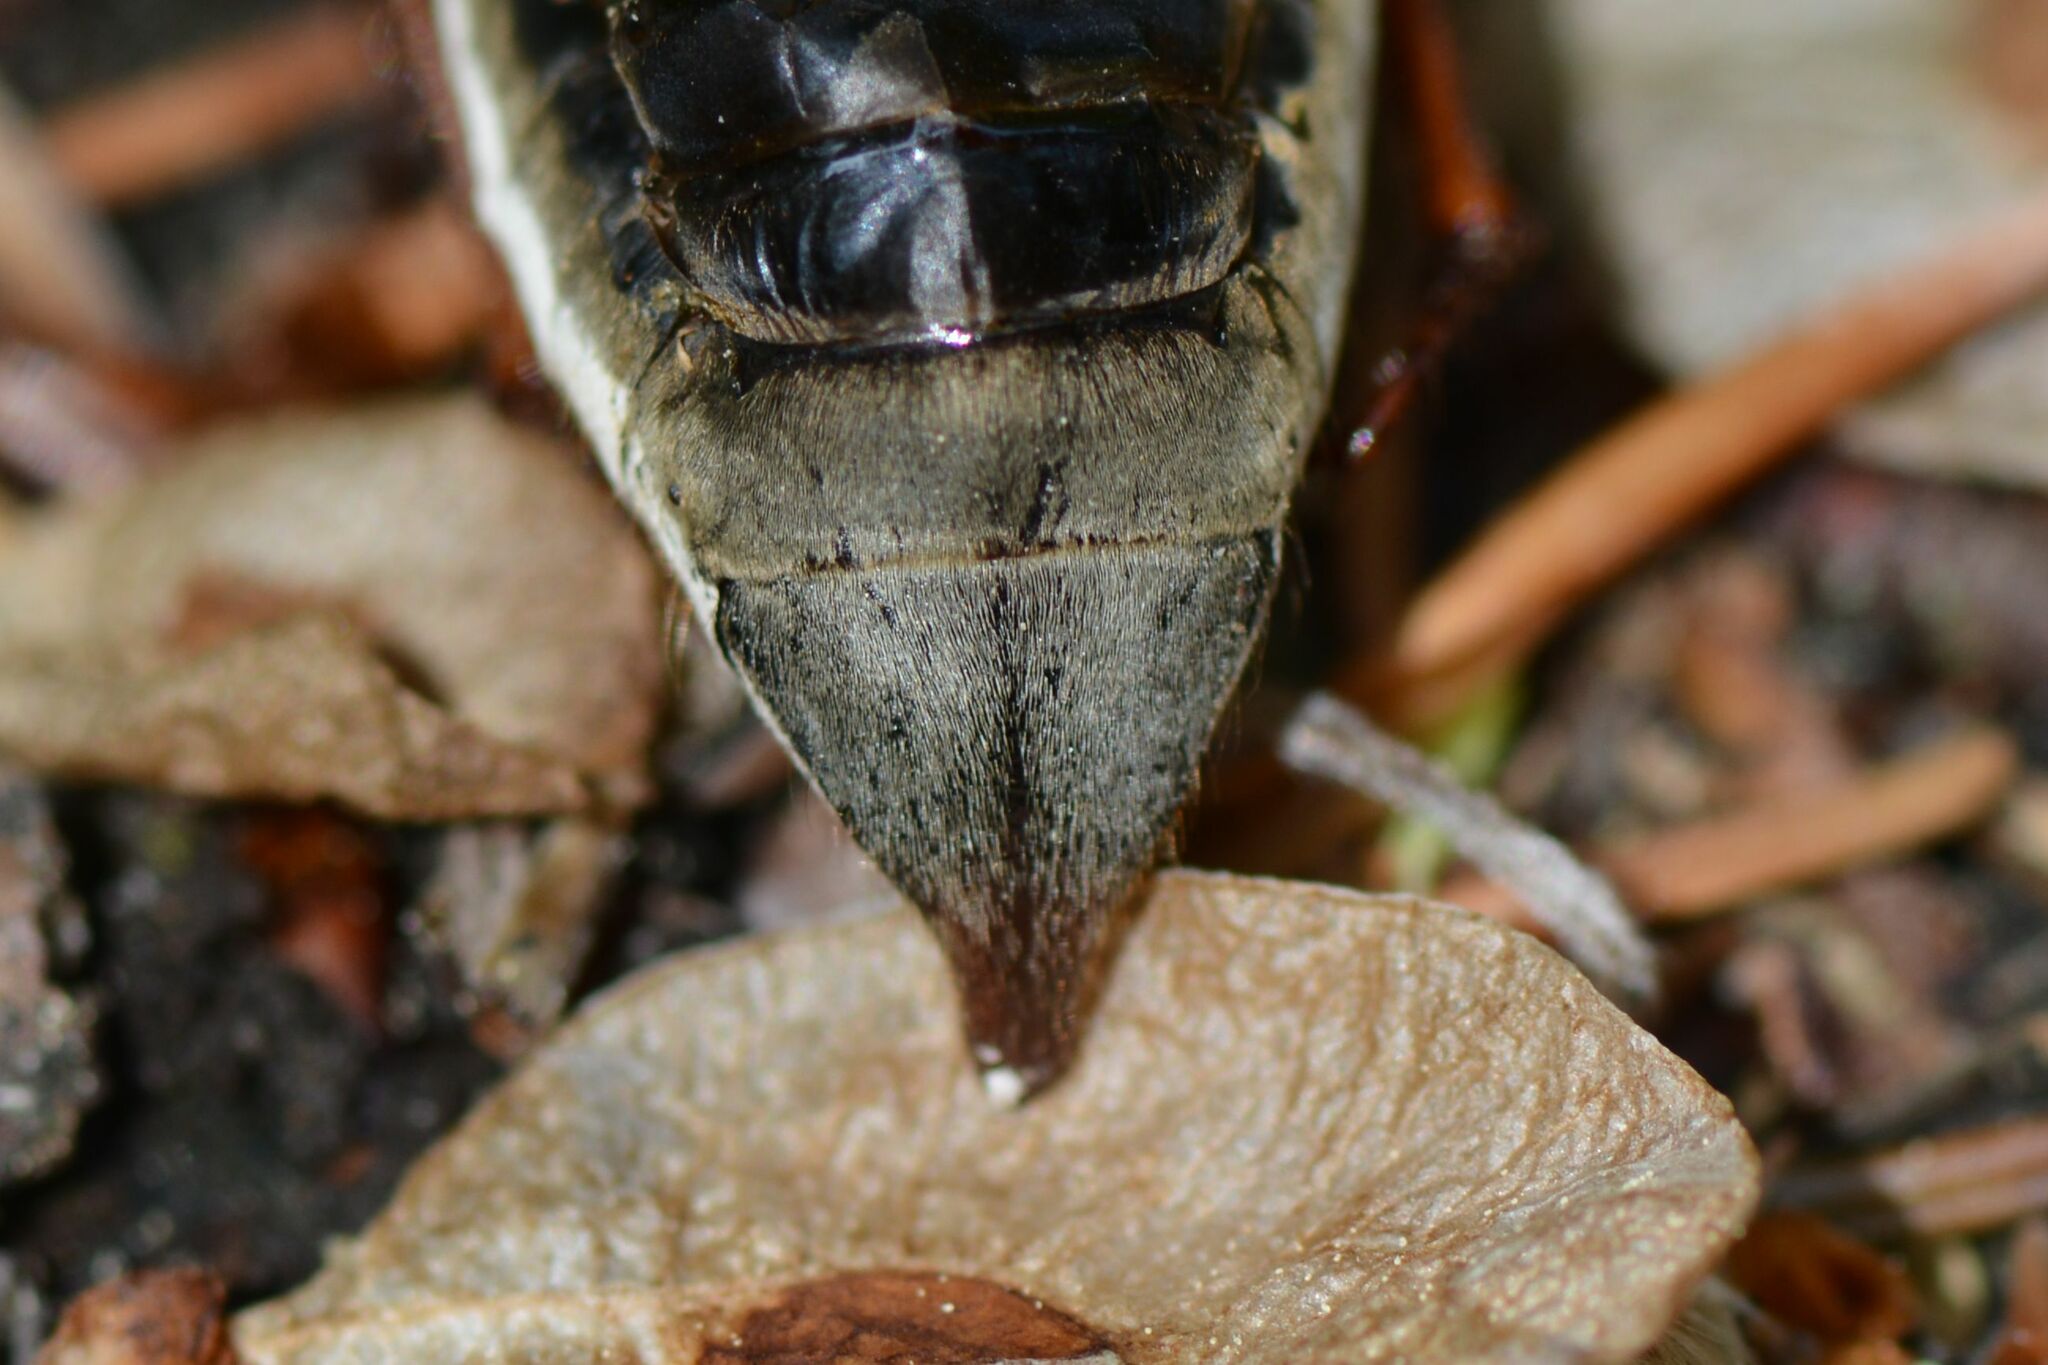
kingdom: Animalia
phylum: Arthropoda
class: Insecta
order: Coleoptera
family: Scarabaeidae
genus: Melolontha
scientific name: Melolontha melolontha
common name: Cockchafer maybeetle
